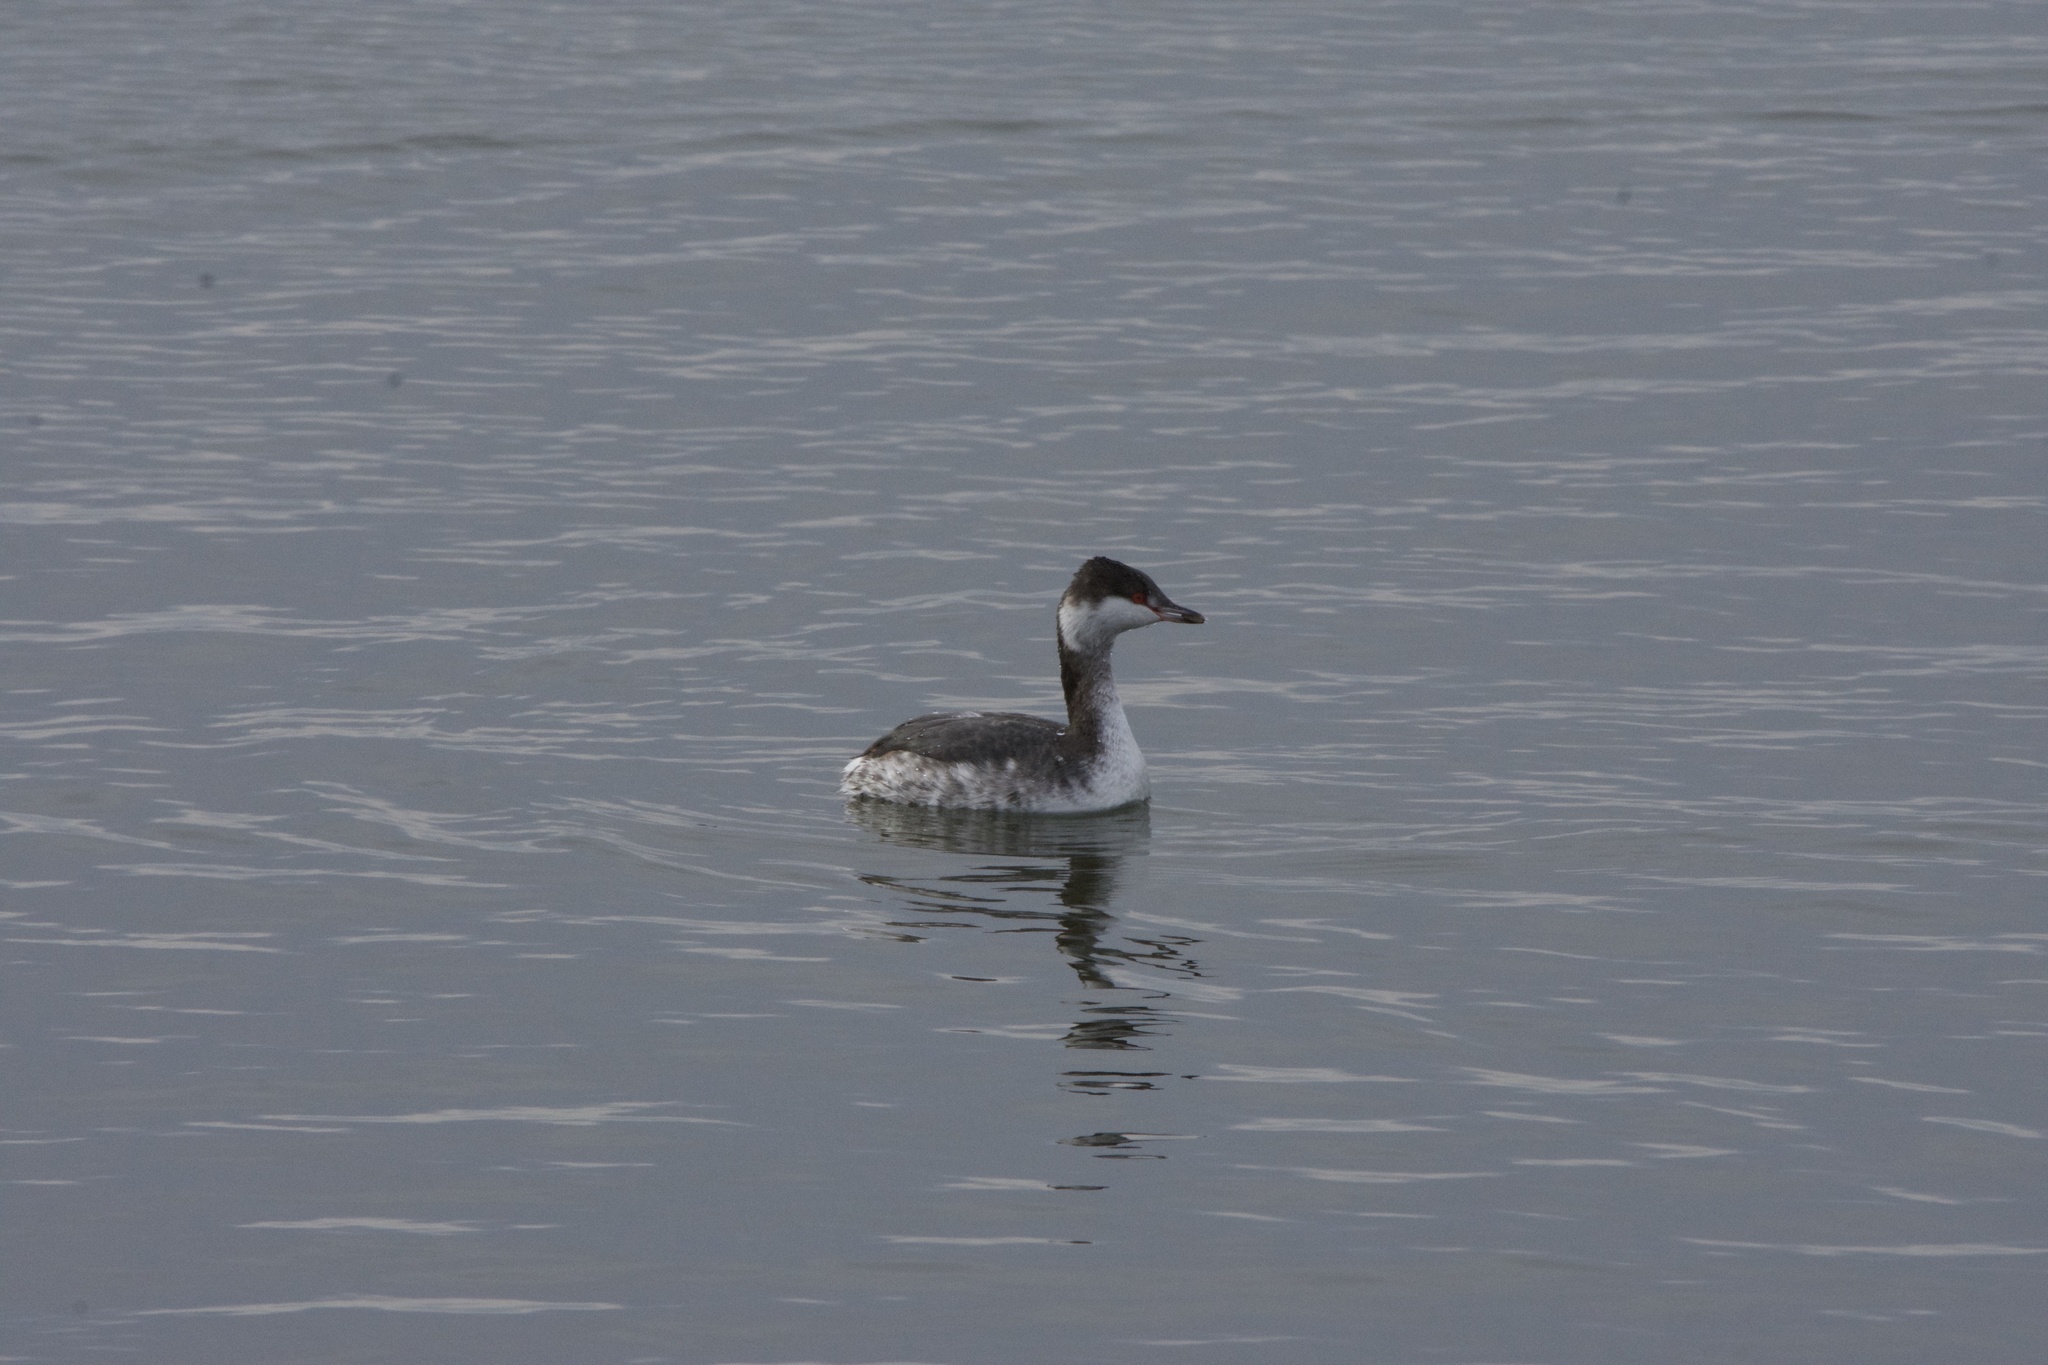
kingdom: Animalia
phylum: Chordata
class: Aves
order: Podicipediformes
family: Podicipedidae
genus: Podiceps
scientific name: Podiceps auritus
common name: Horned grebe
